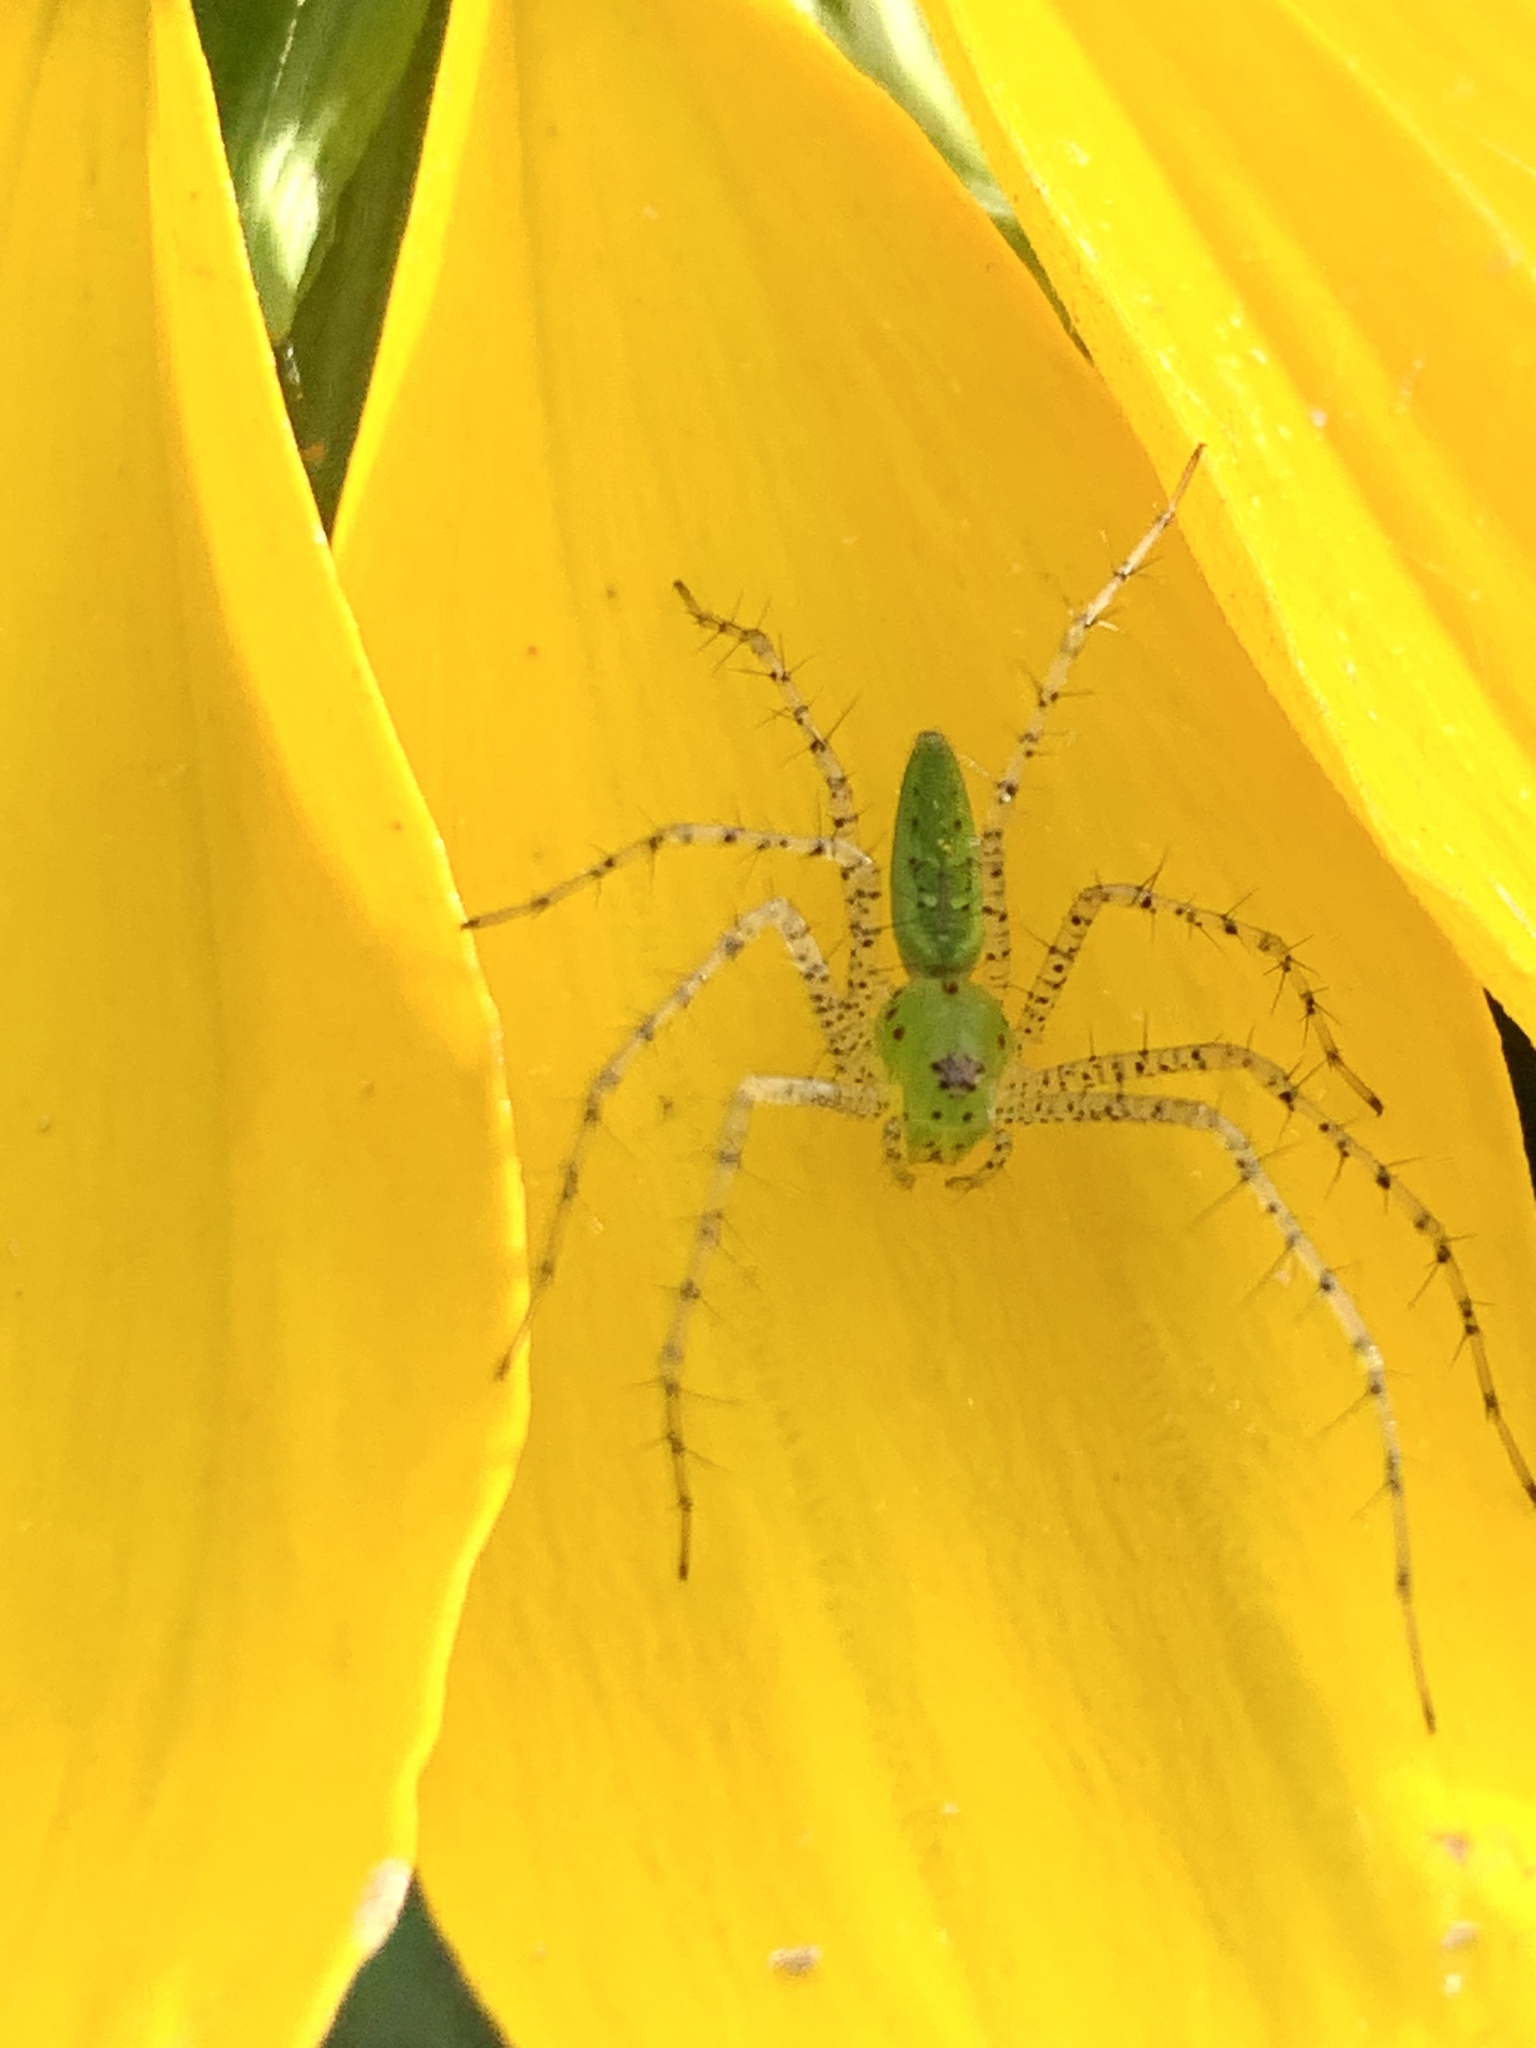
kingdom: Animalia
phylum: Arthropoda
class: Arachnida
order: Araneae
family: Oxyopidae
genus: Peucetia
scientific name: Peucetia viridans
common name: Lynx spiders
